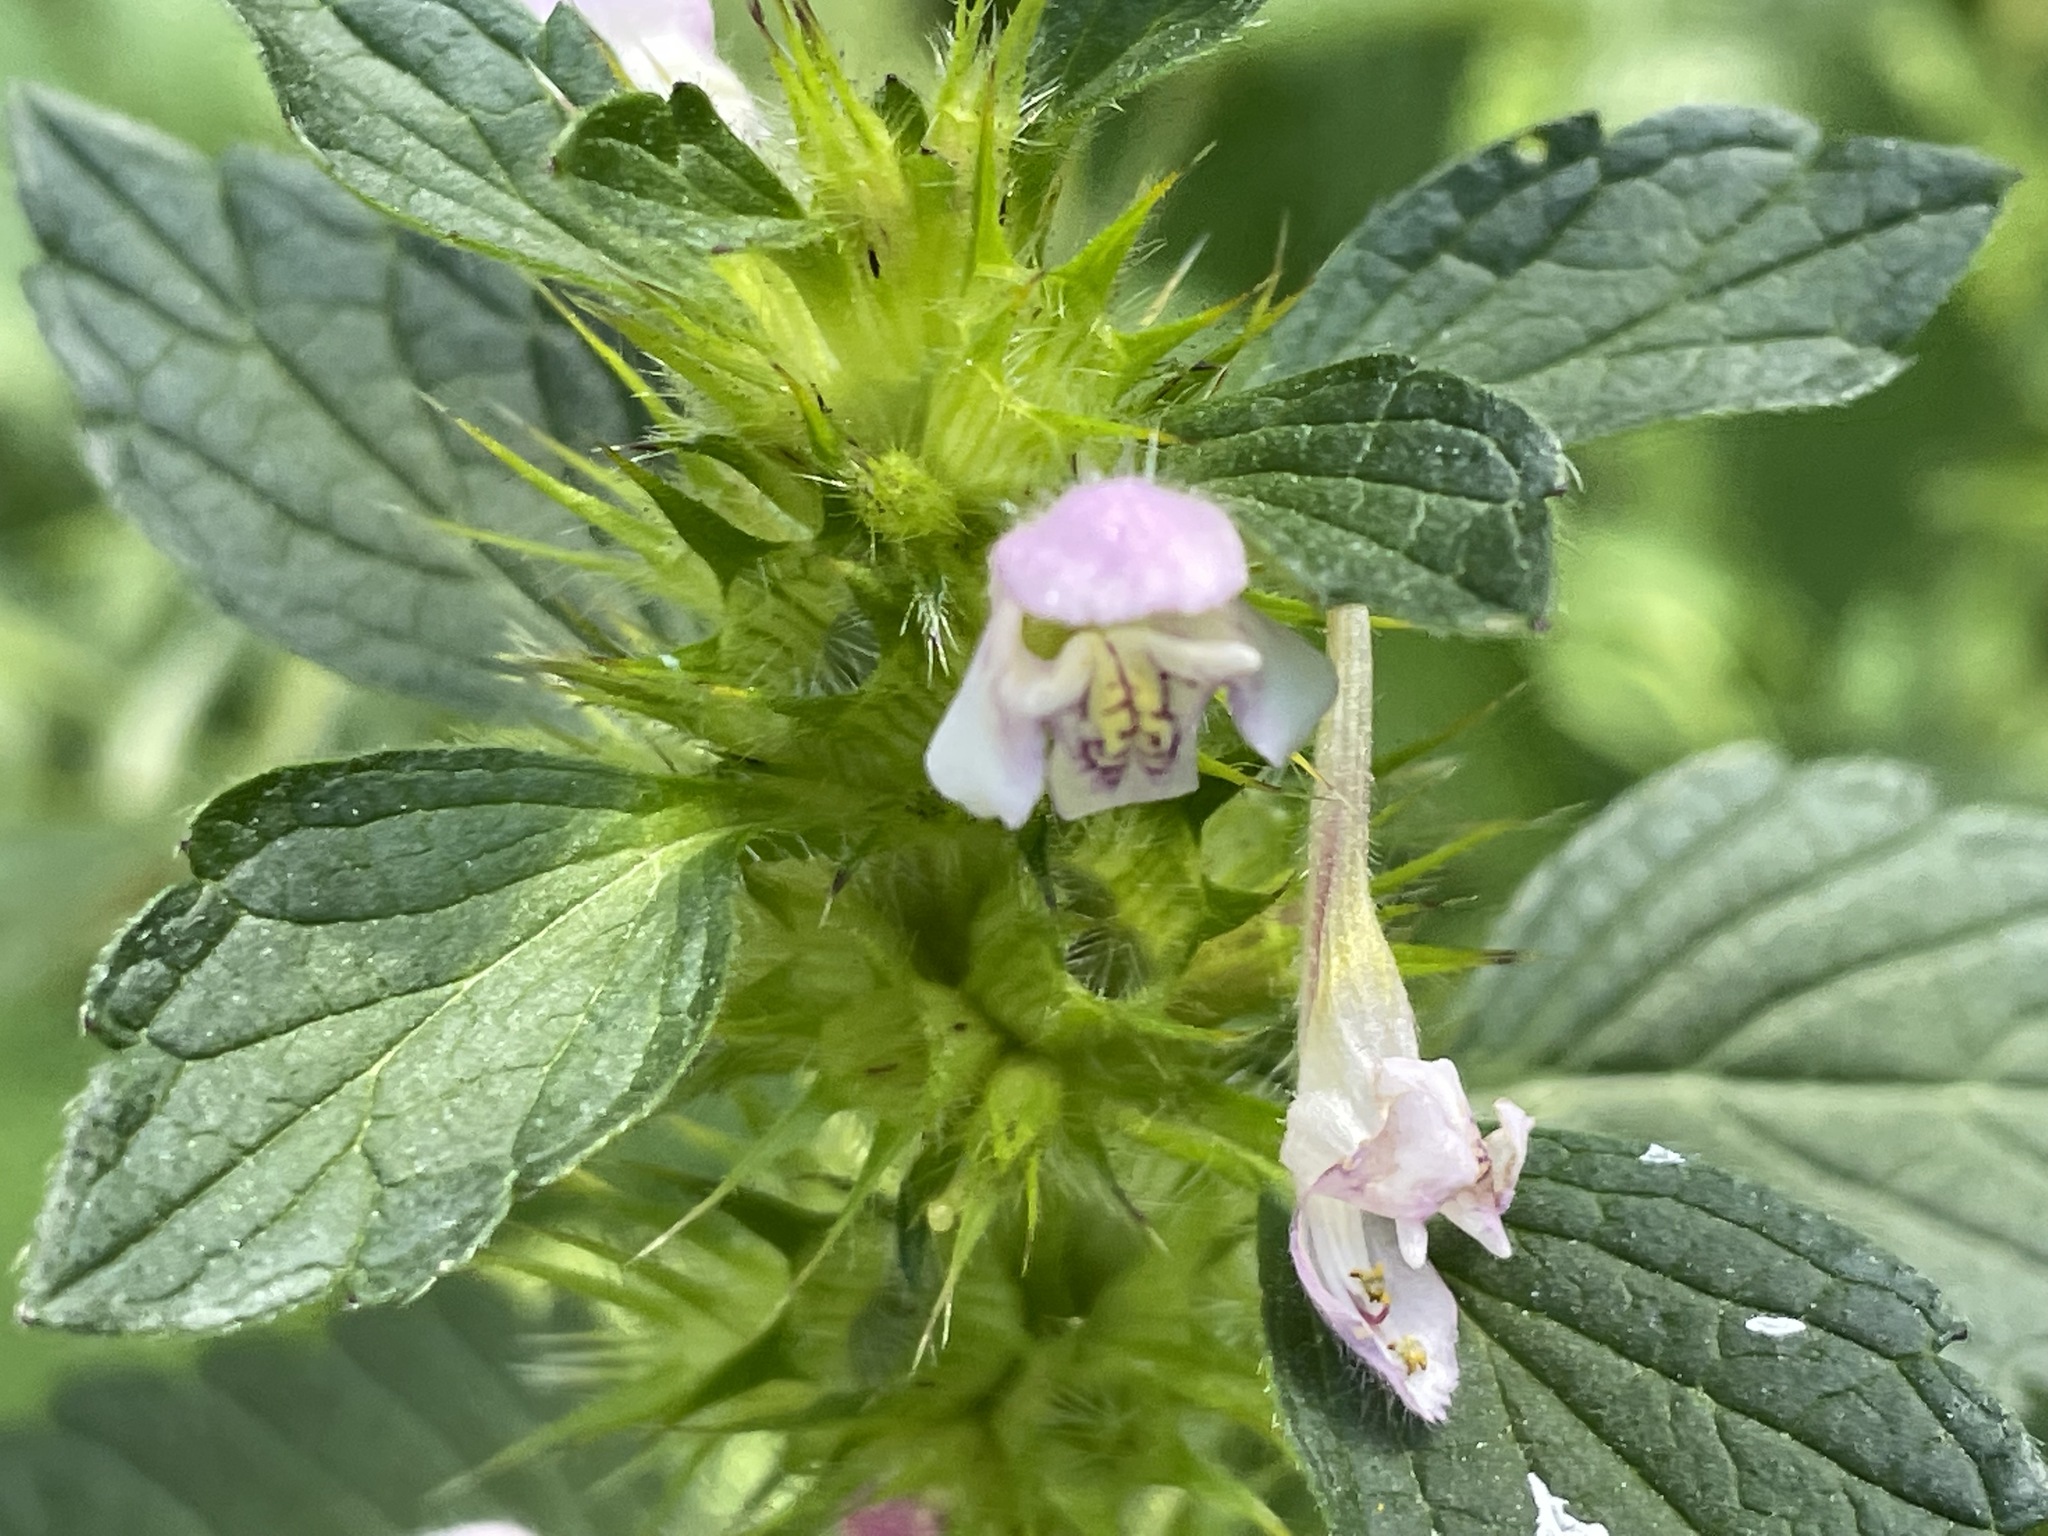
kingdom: Plantae
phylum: Tracheophyta
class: Magnoliopsida
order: Lamiales
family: Lamiaceae
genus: Galeopsis
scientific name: Galeopsis tetrahit
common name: Common hemp-nettle
